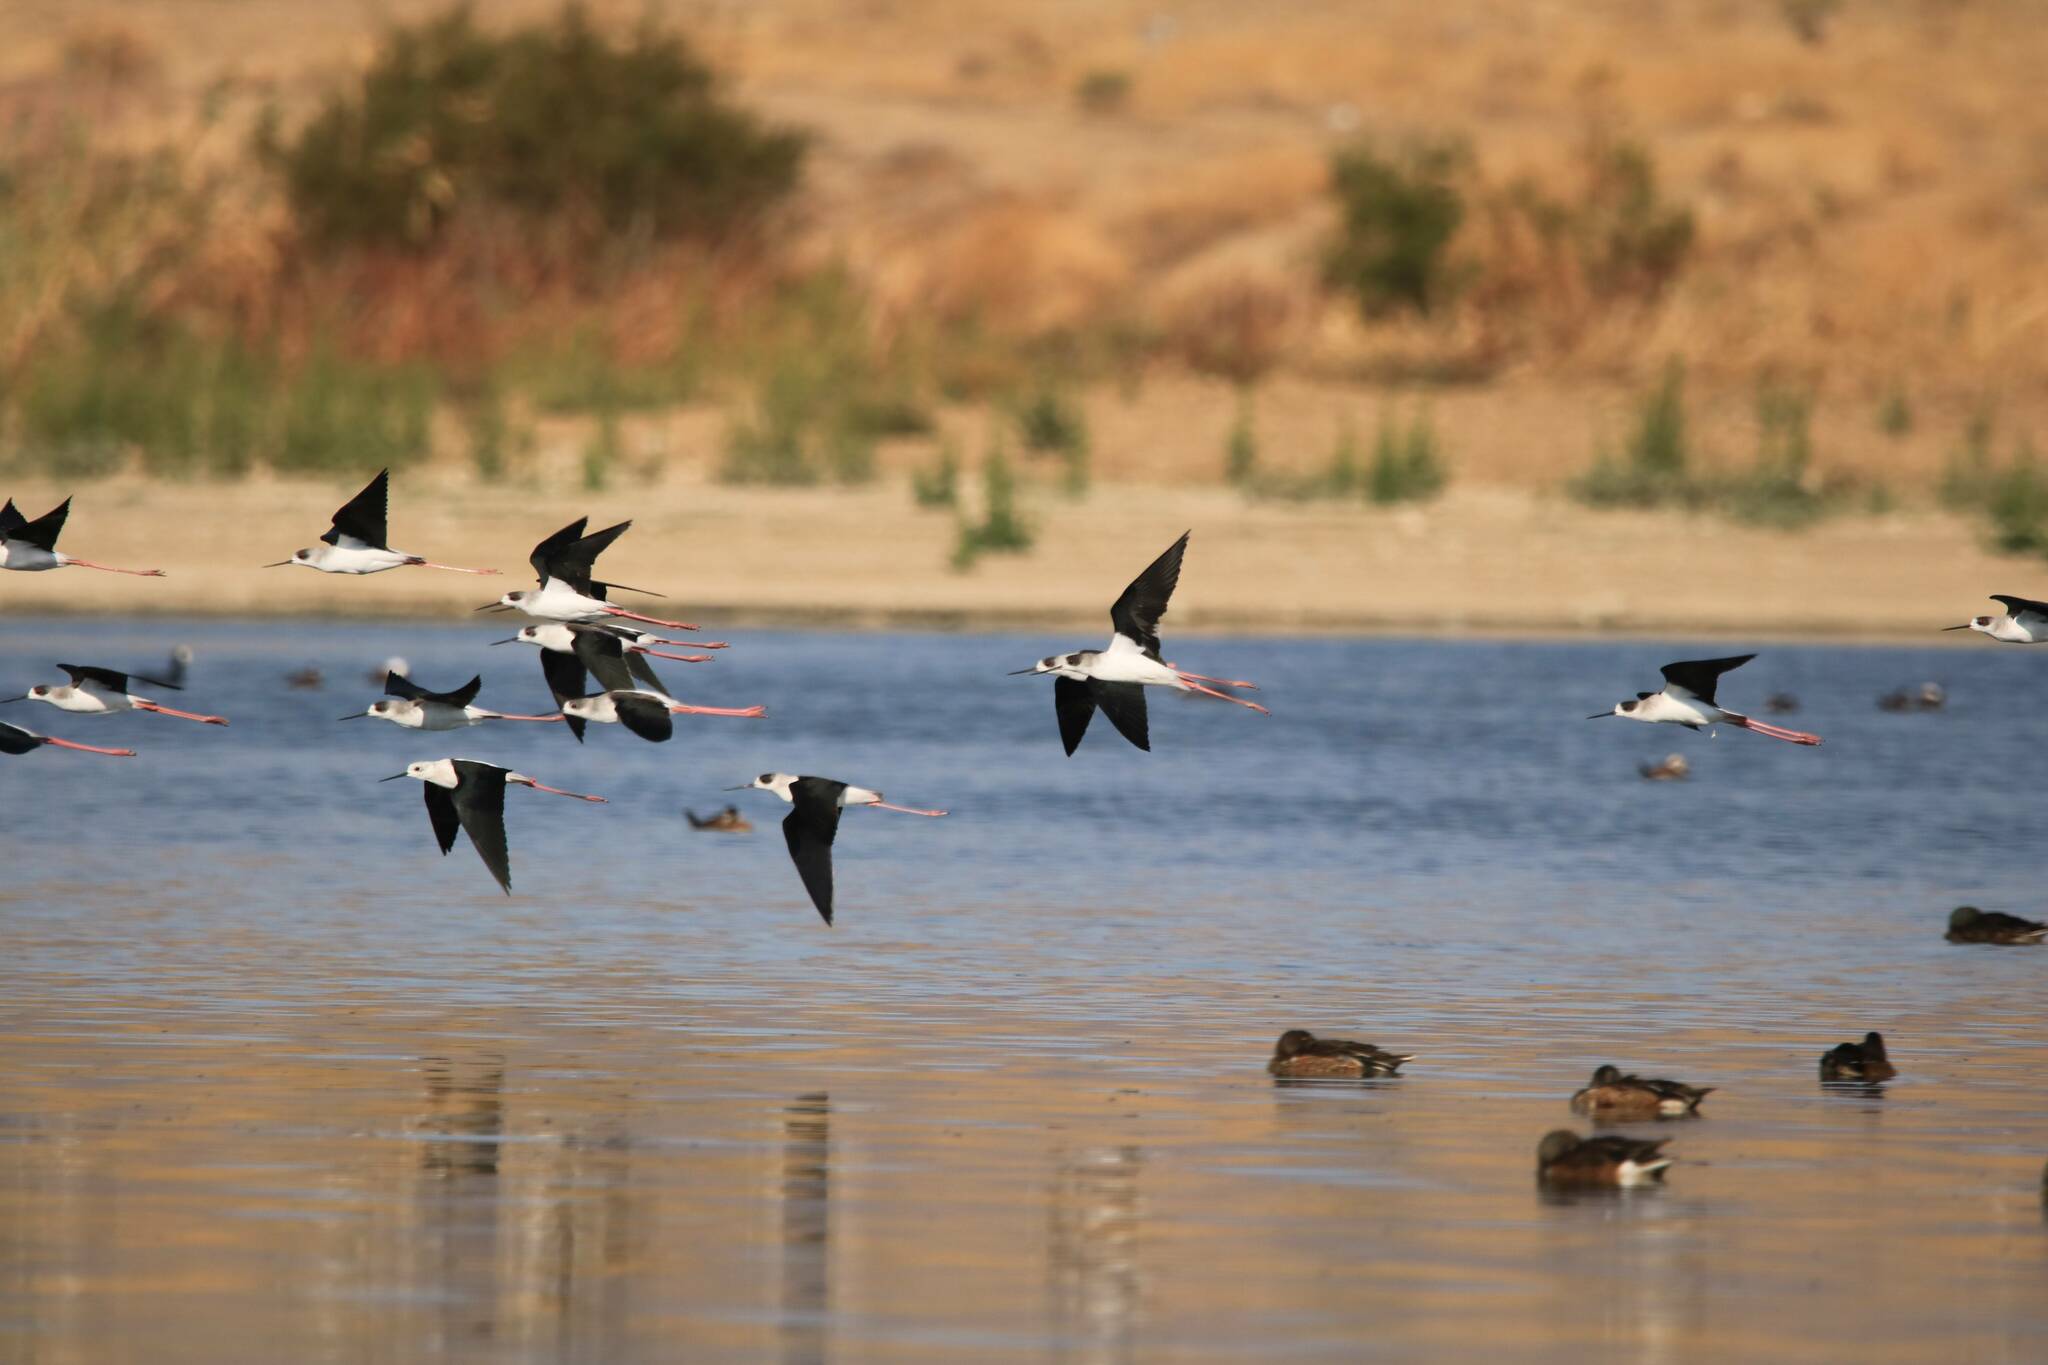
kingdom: Animalia
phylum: Chordata
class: Aves
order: Charadriiformes
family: Recurvirostridae
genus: Himantopus
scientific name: Himantopus himantopus
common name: Black-winged stilt
